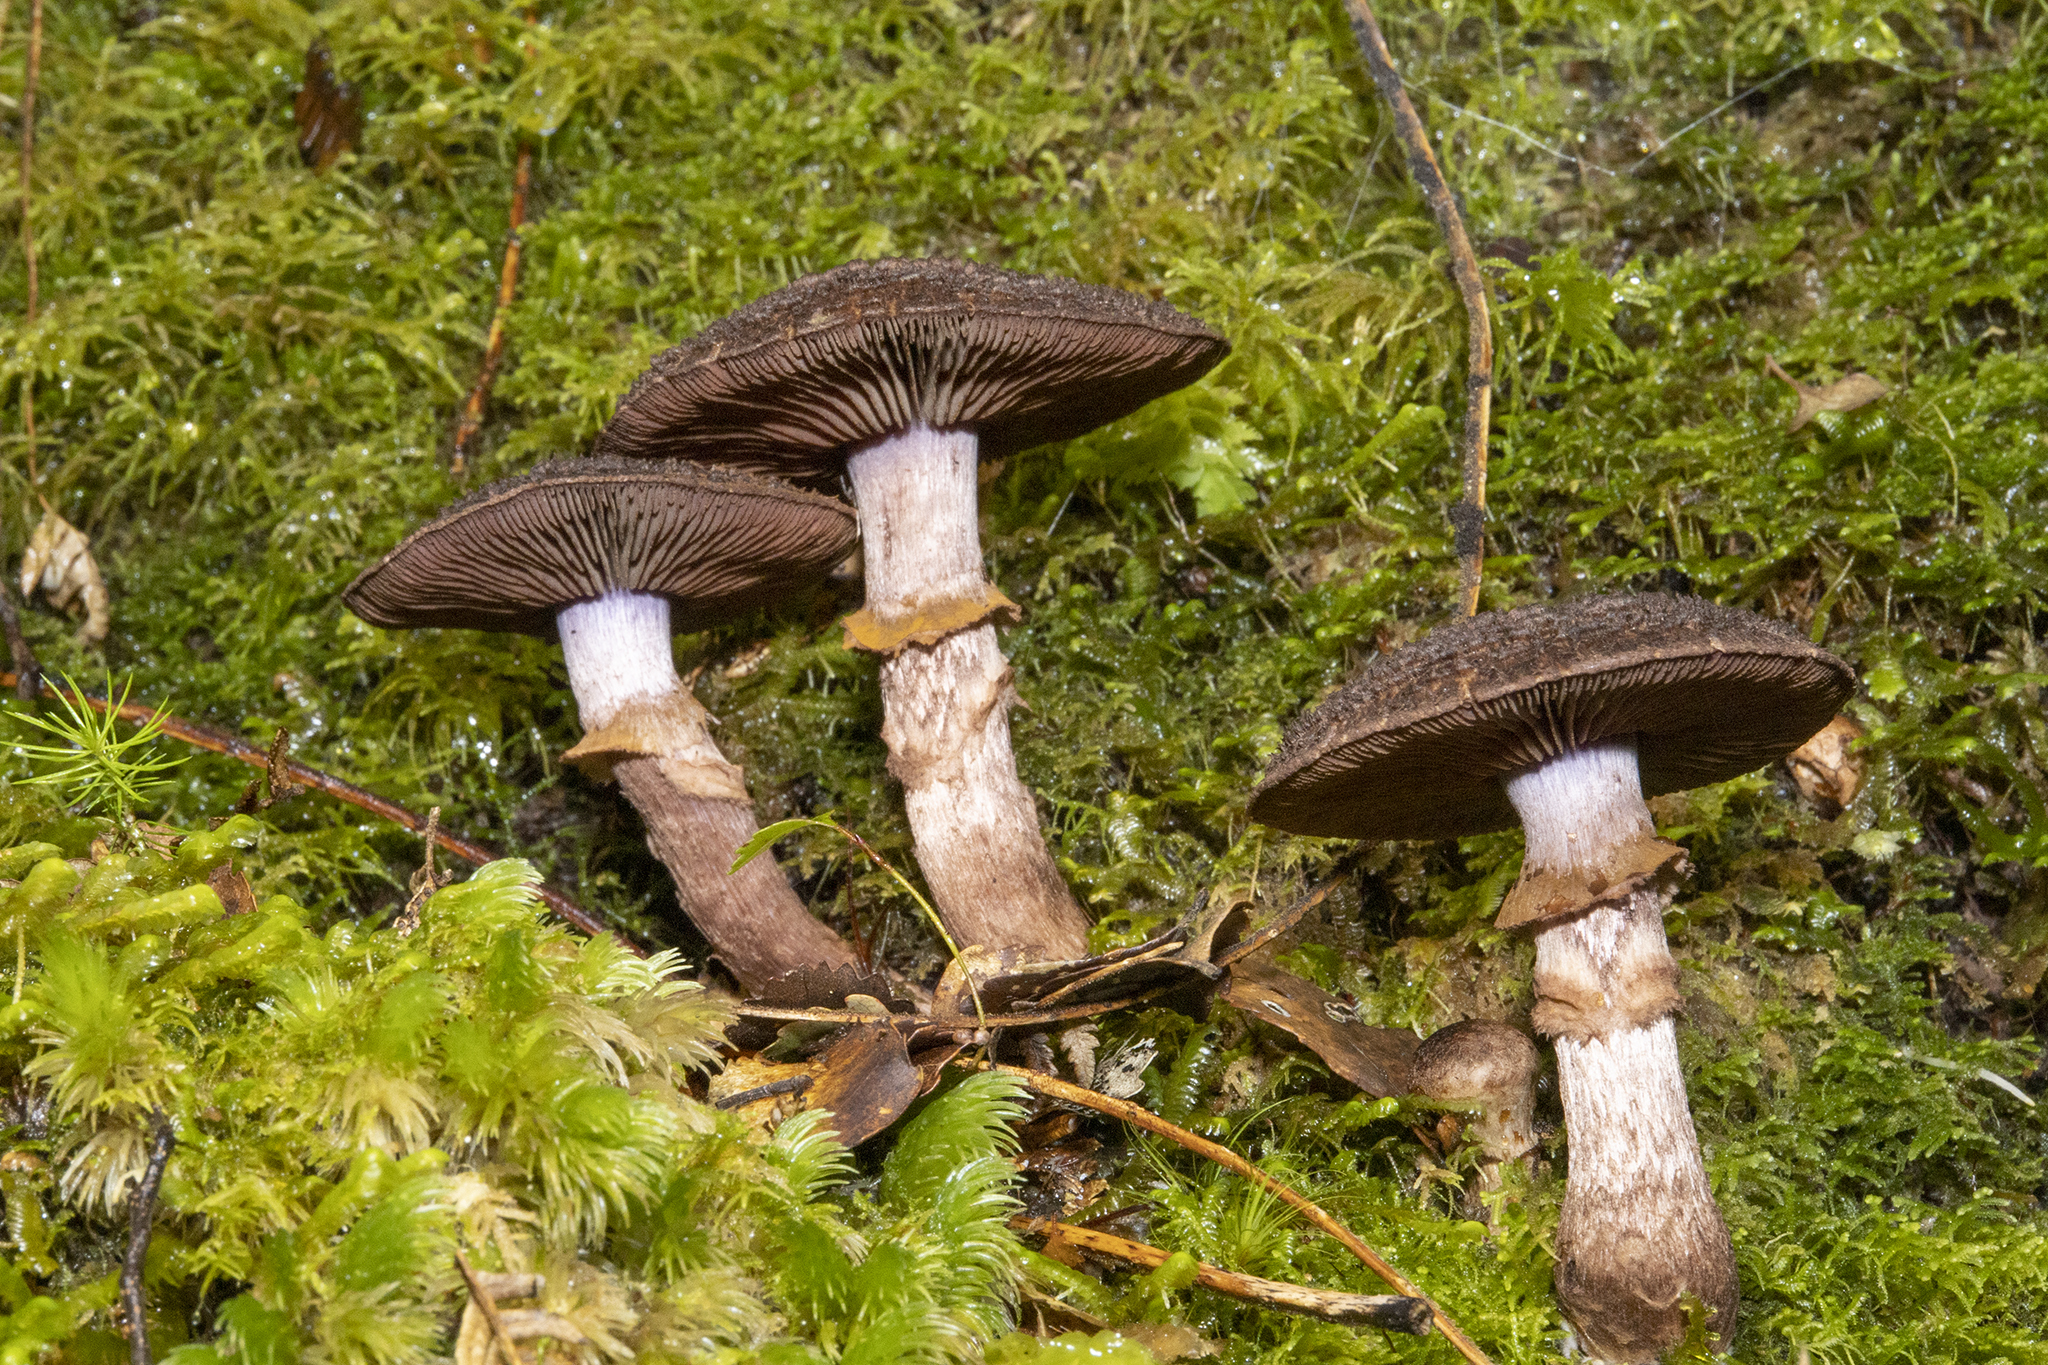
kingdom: Fungi
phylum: Basidiomycota
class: Agaricomycetes
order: Agaricales
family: Cortinariaceae
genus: Cortinarius
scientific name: Cortinarius ursus
